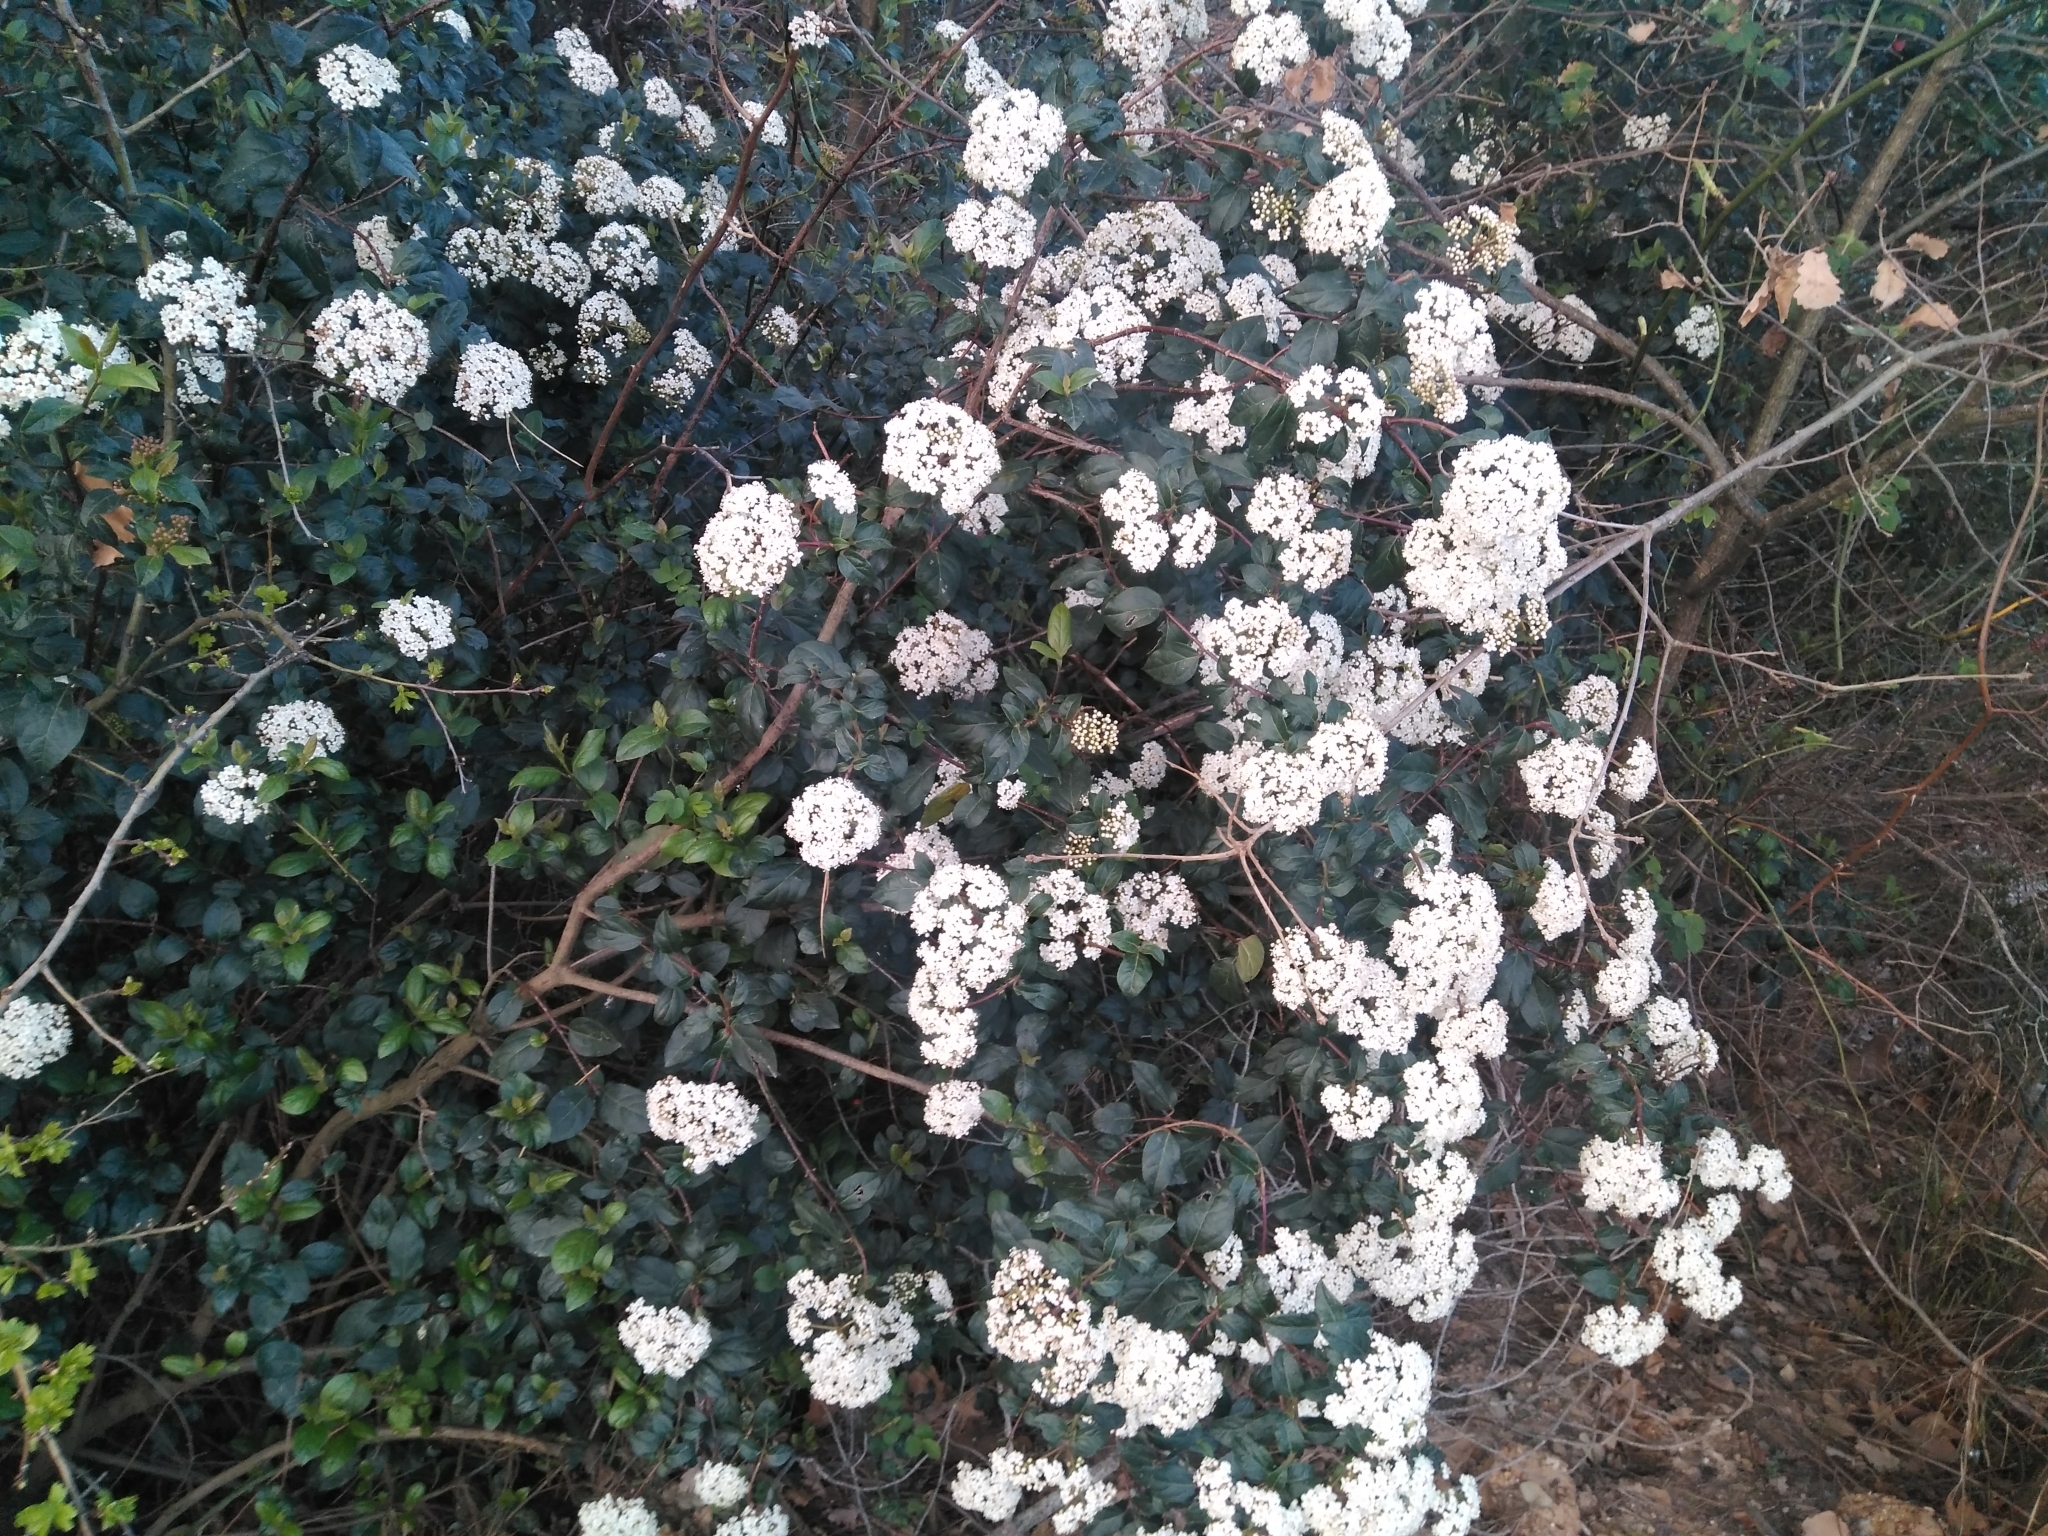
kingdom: Plantae
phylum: Tracheophyta
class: Magnoliopsida
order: Dipsacales
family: Viburnaceae
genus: Viburnum
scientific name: Viburnum tinus
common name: Laurustinus
